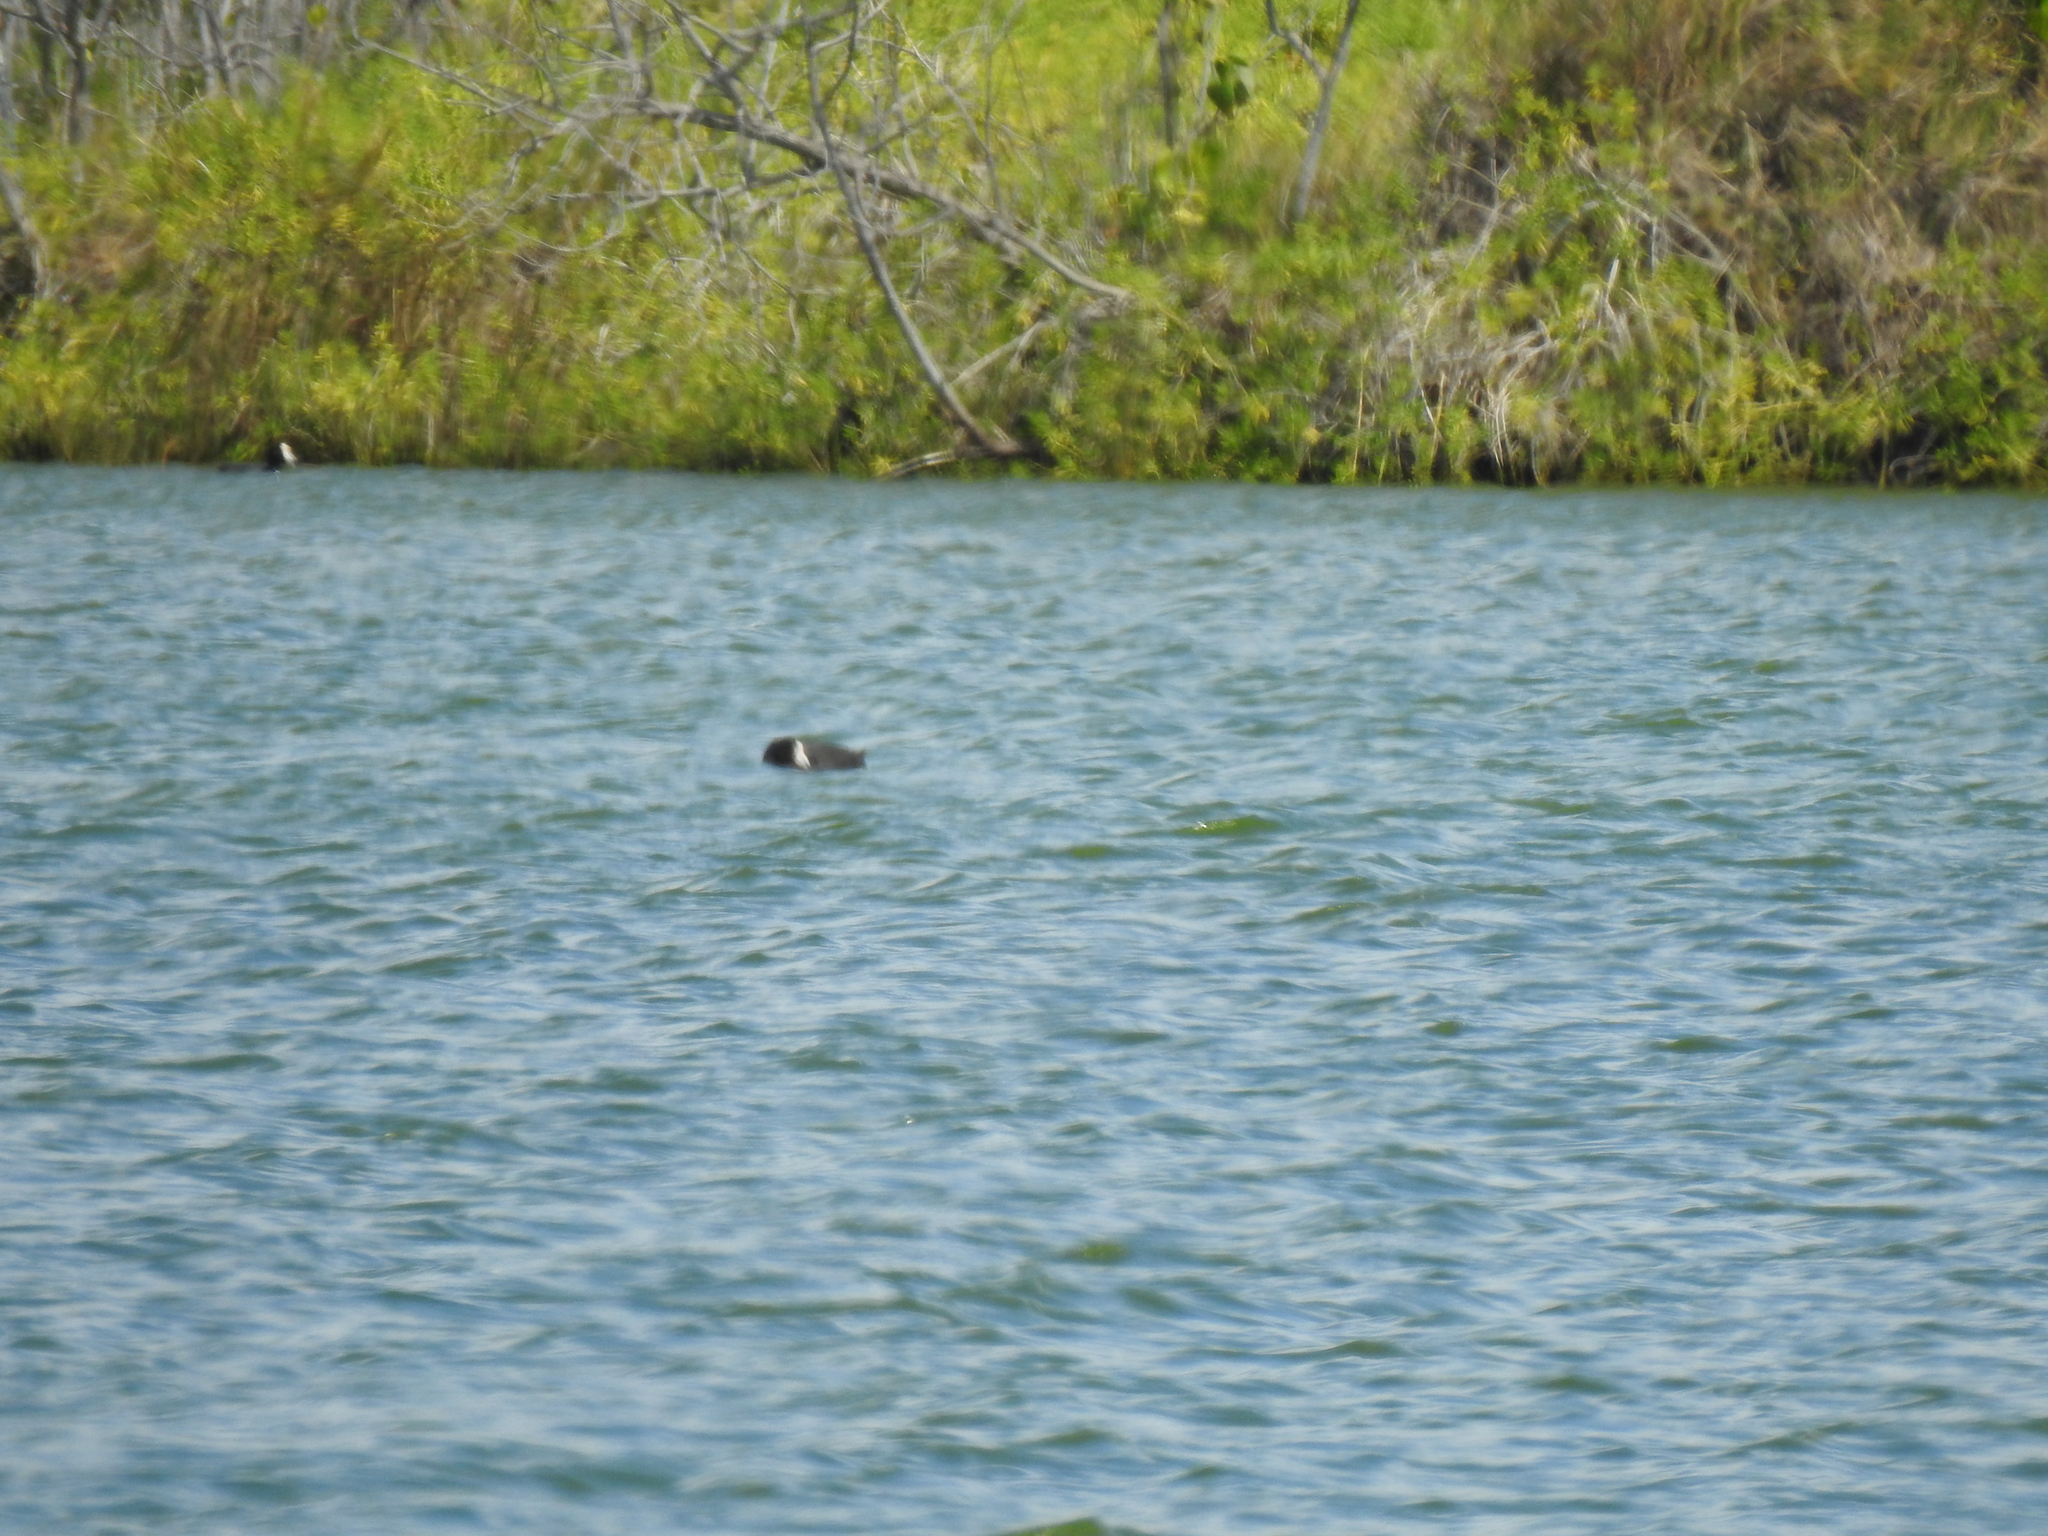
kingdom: Animalia
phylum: Chordata
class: Aves
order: Gruiformes
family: Rallidae
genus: Fulica
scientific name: Fulica alai
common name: Hawaiian coot
